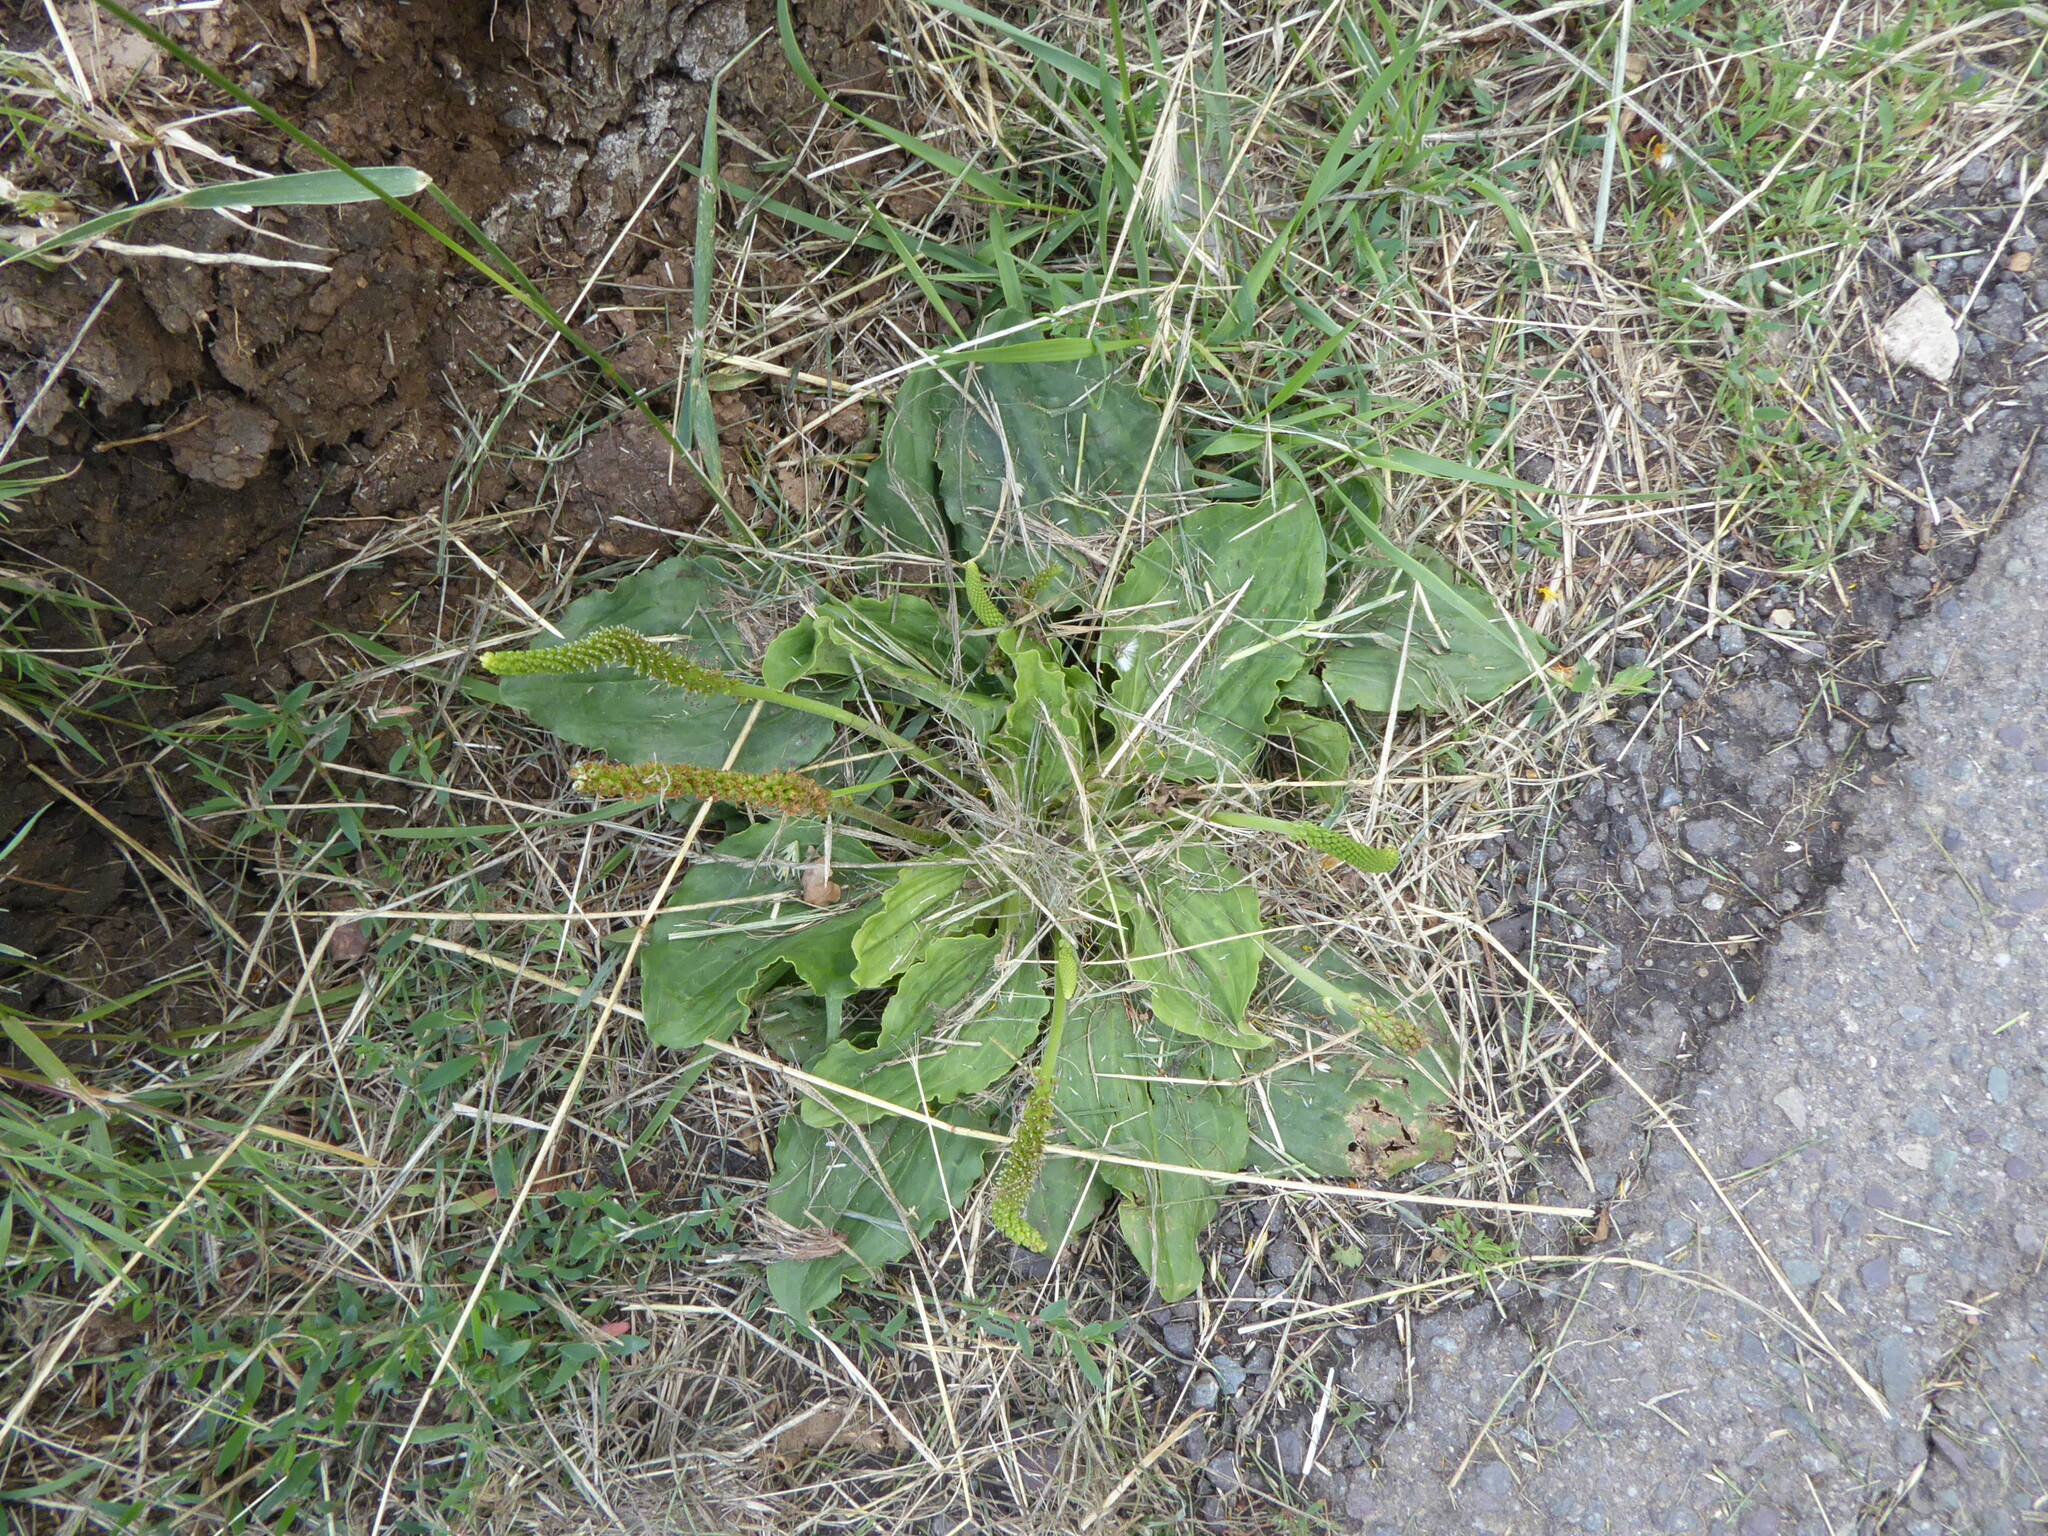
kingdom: Plantae
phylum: Tracheophyta
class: Magnoliopsida
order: Lamiales
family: Plantaginaceae
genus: Plantago
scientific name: Plantago major
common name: Common plantain
